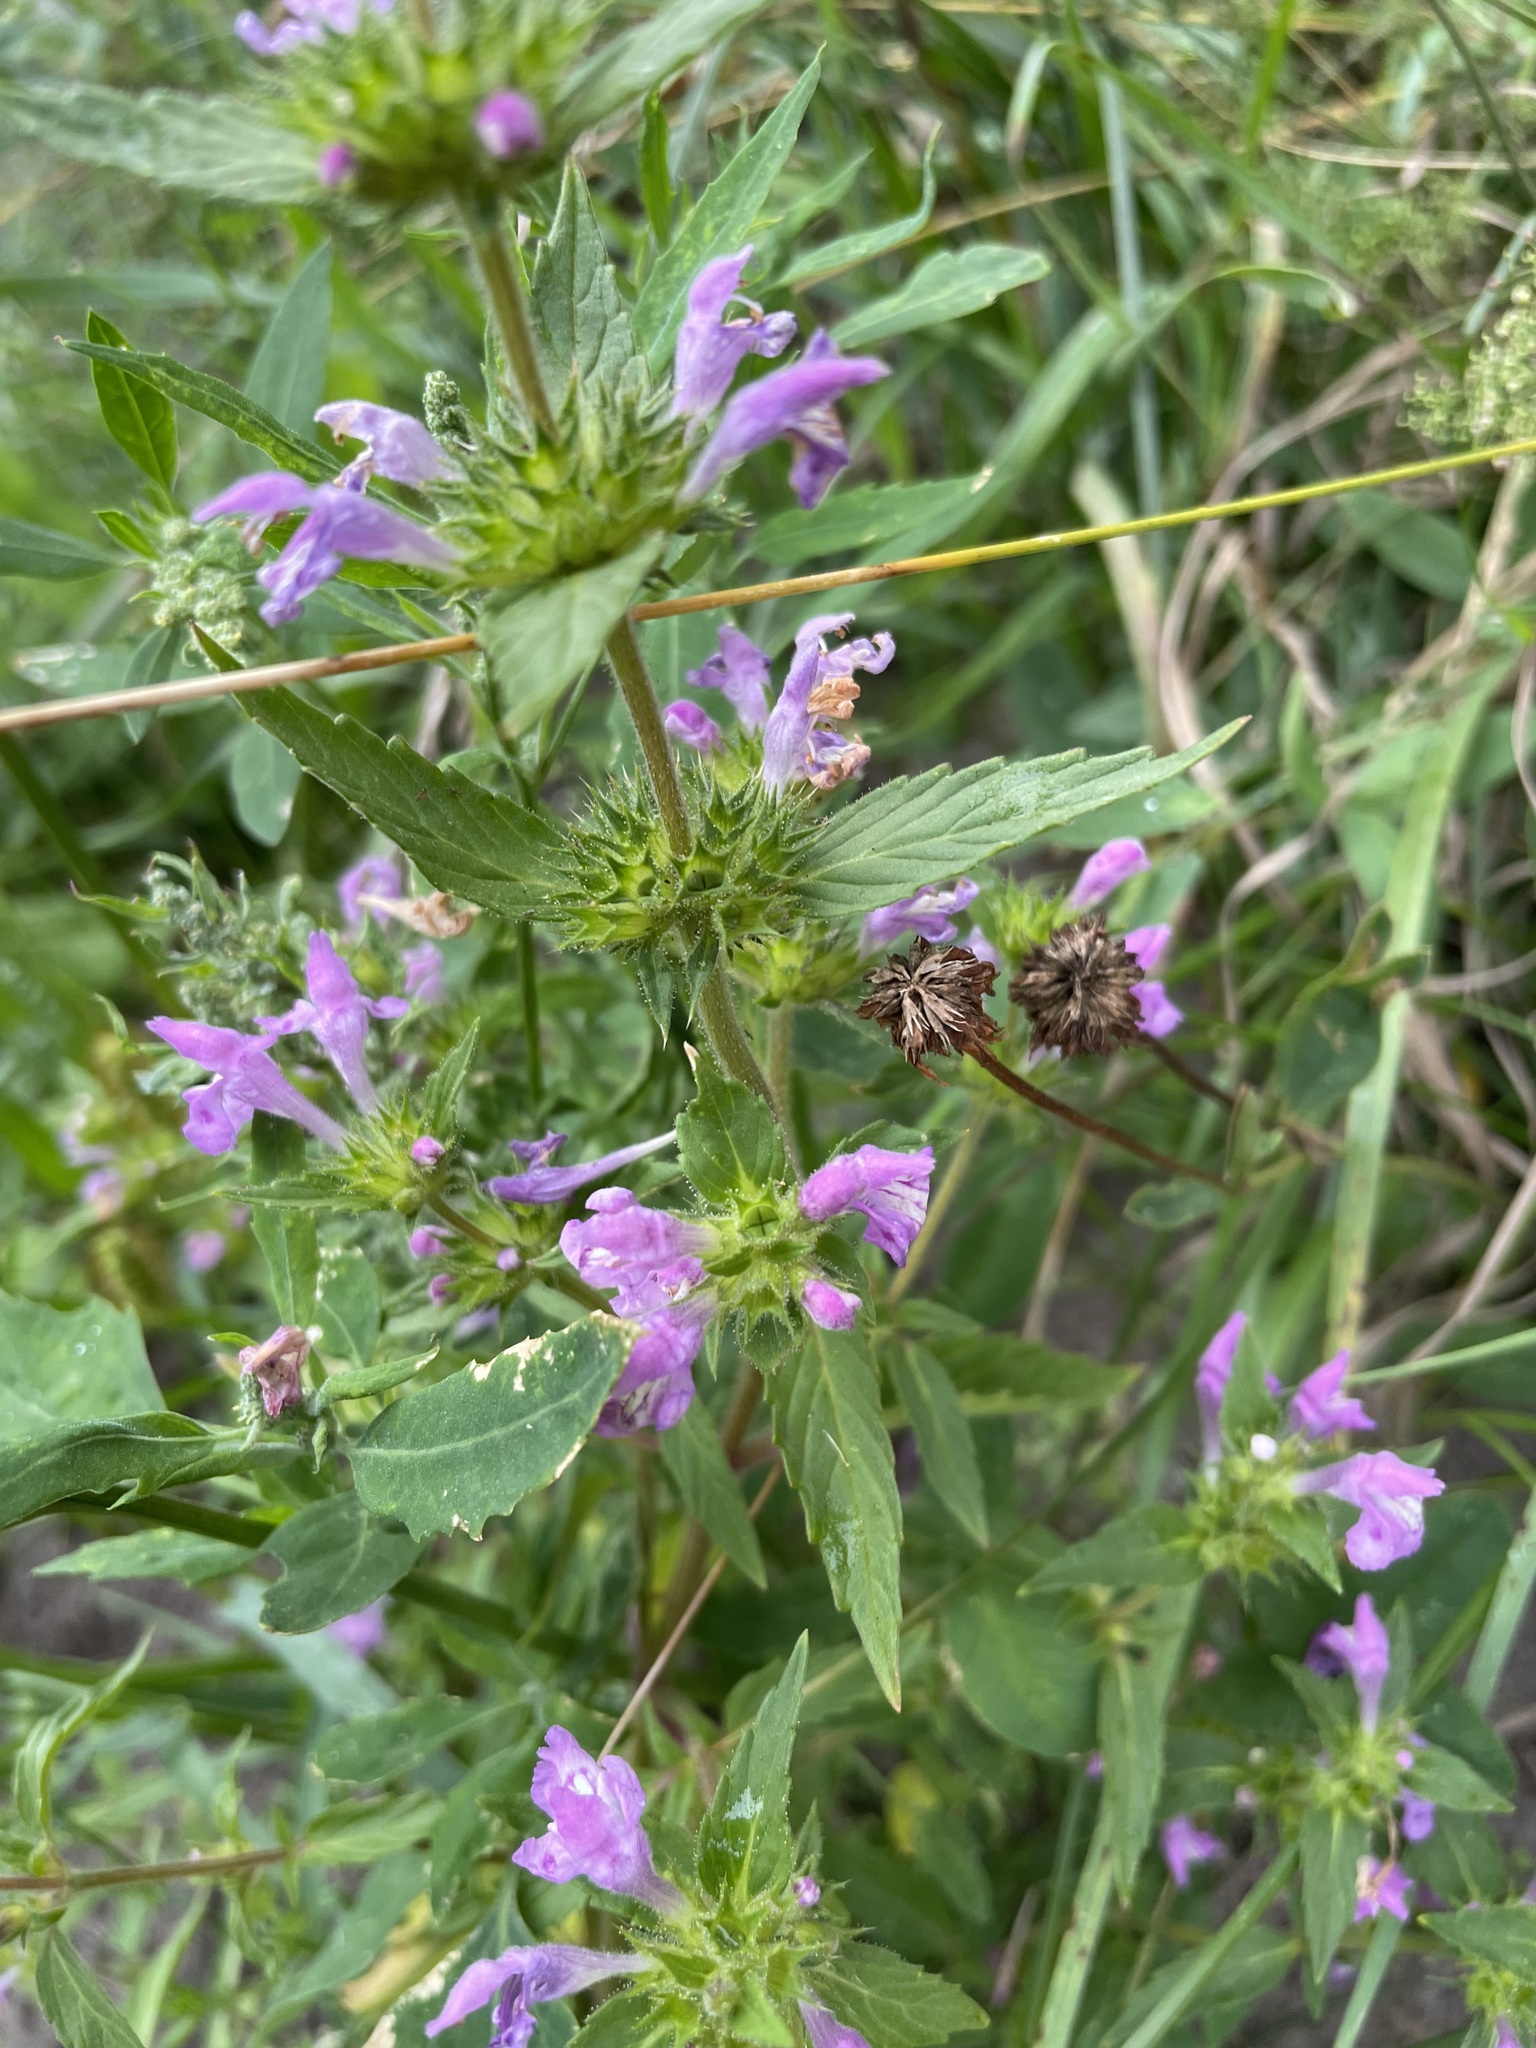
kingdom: Plantae
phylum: Tracheophyta
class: Magnoliopsida
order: Lamiales
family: Lamiaceae
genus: Galeopsis
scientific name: Galeopsis ladanum
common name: Broad-leaved hemp-nettle
